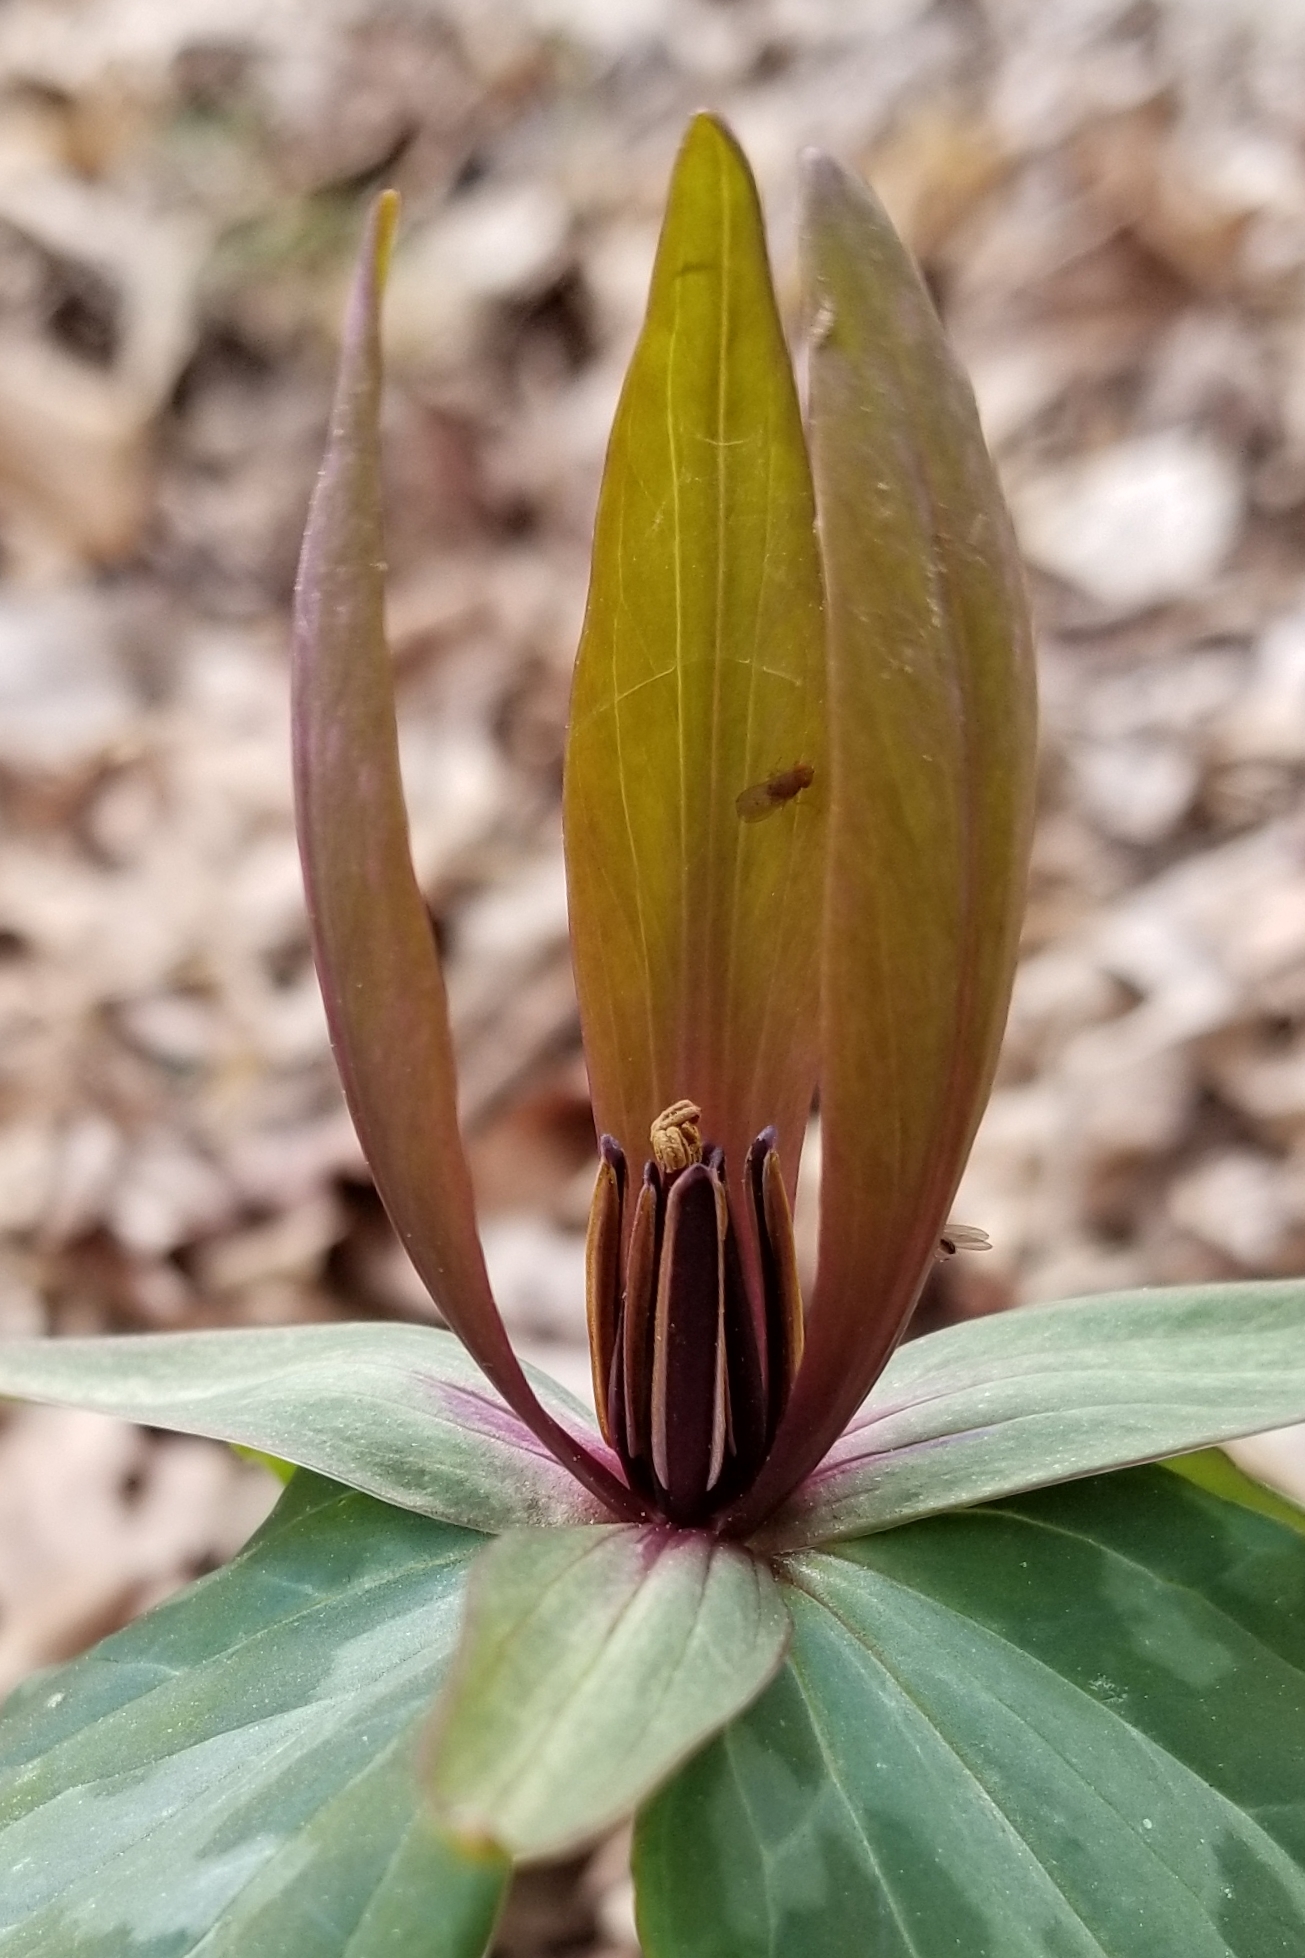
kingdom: Plantae
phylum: Tracheophyta
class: Liliopsida
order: Liliales
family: Melanthiaceae
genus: Trillium
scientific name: Trillium cuneatum
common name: Cuneate trillium
